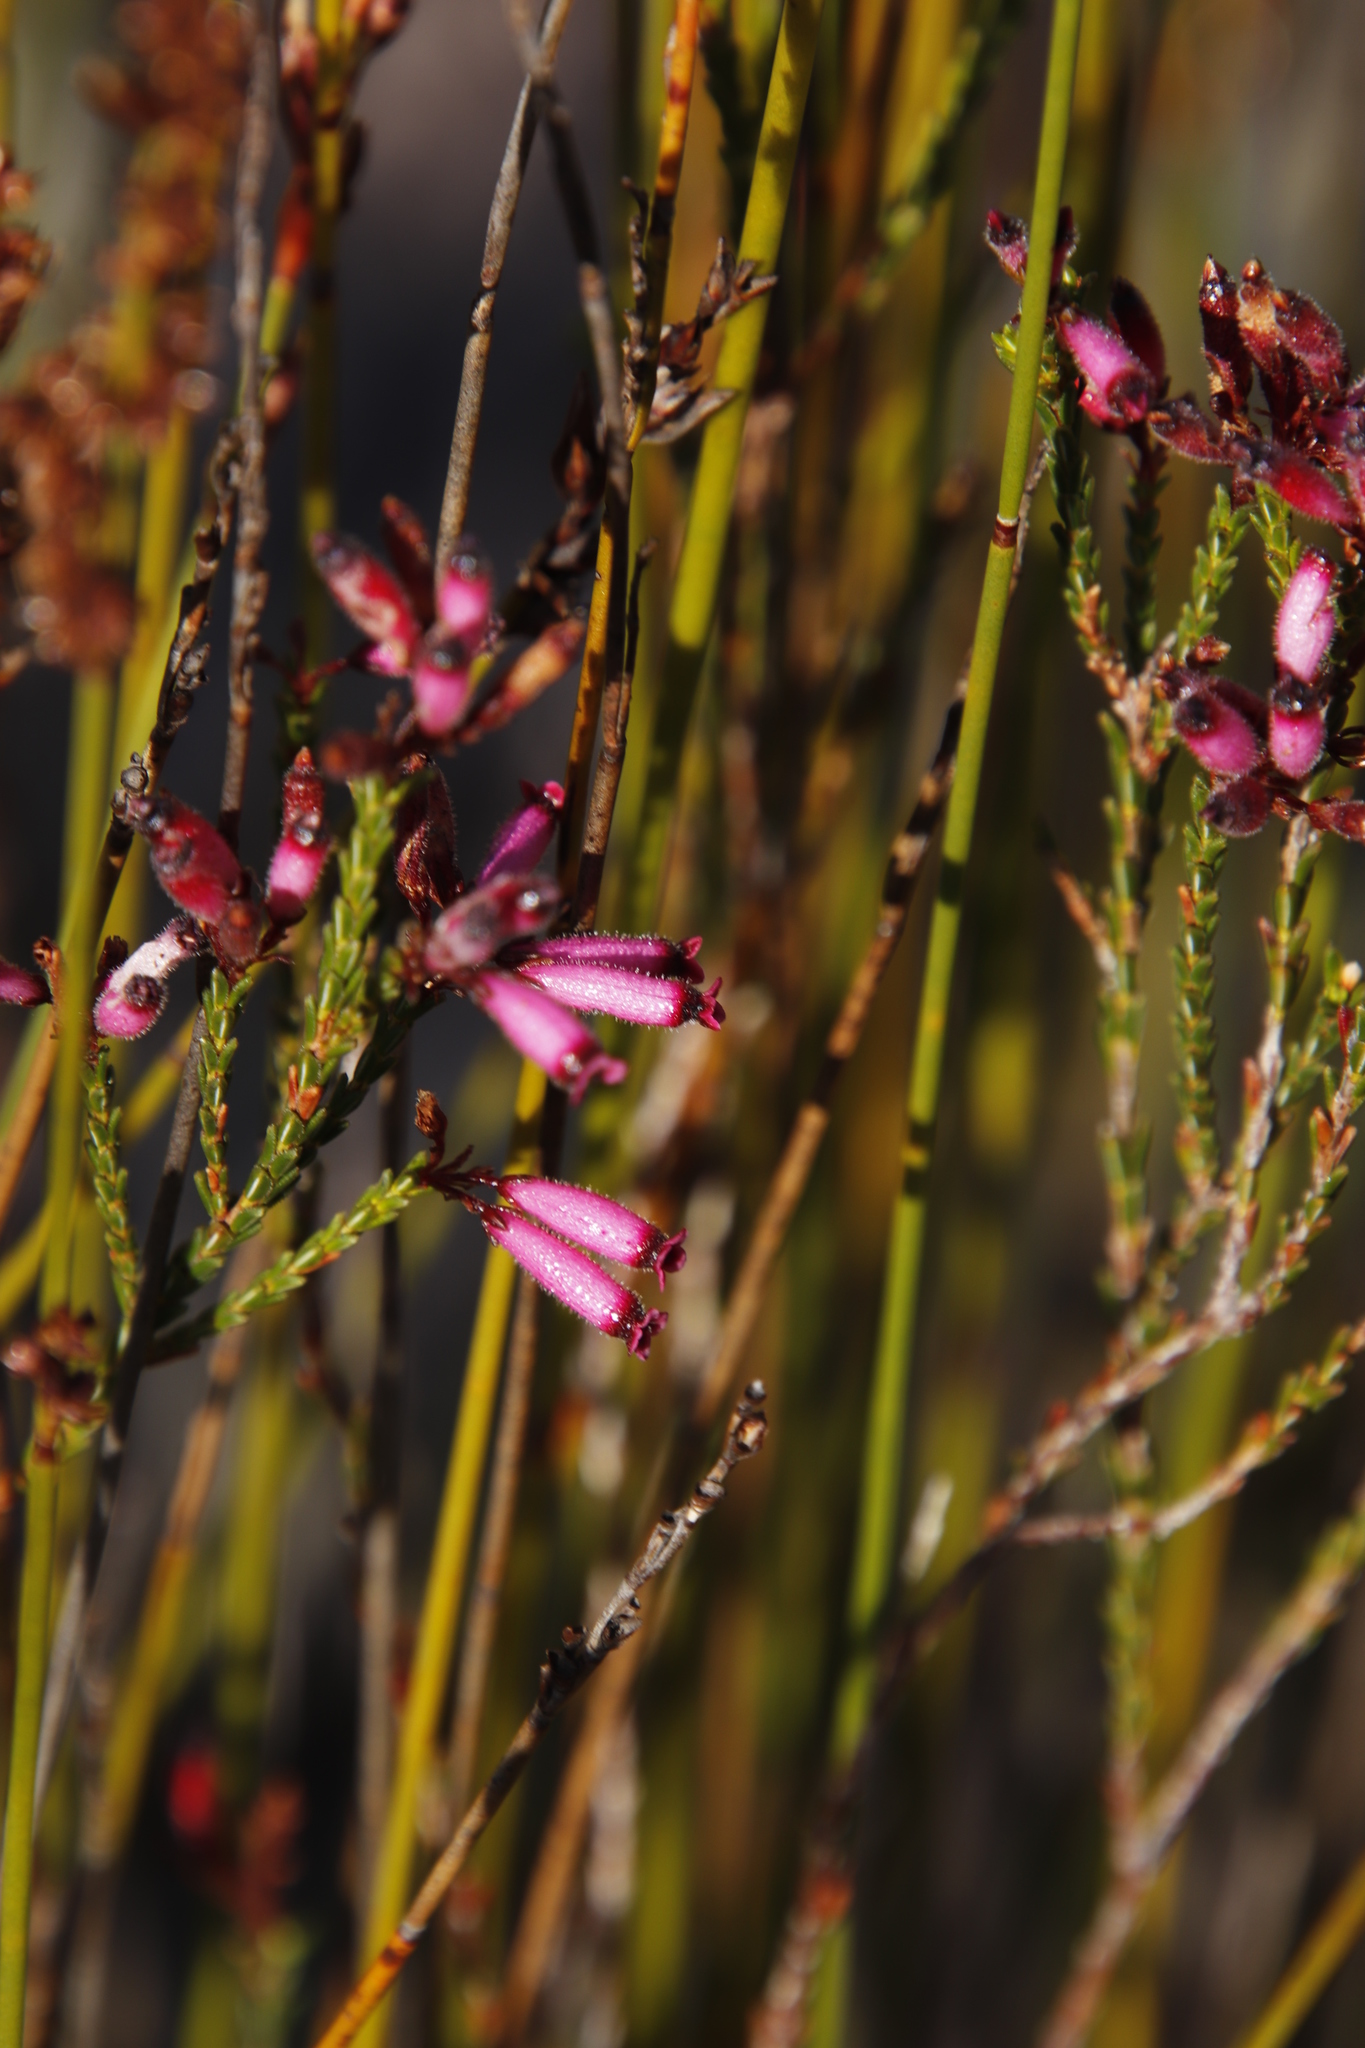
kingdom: Plantae
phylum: Tracheophyta
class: Magnoliopsida
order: Ericales
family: Ericaceae
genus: Erica
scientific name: Erica cristata
